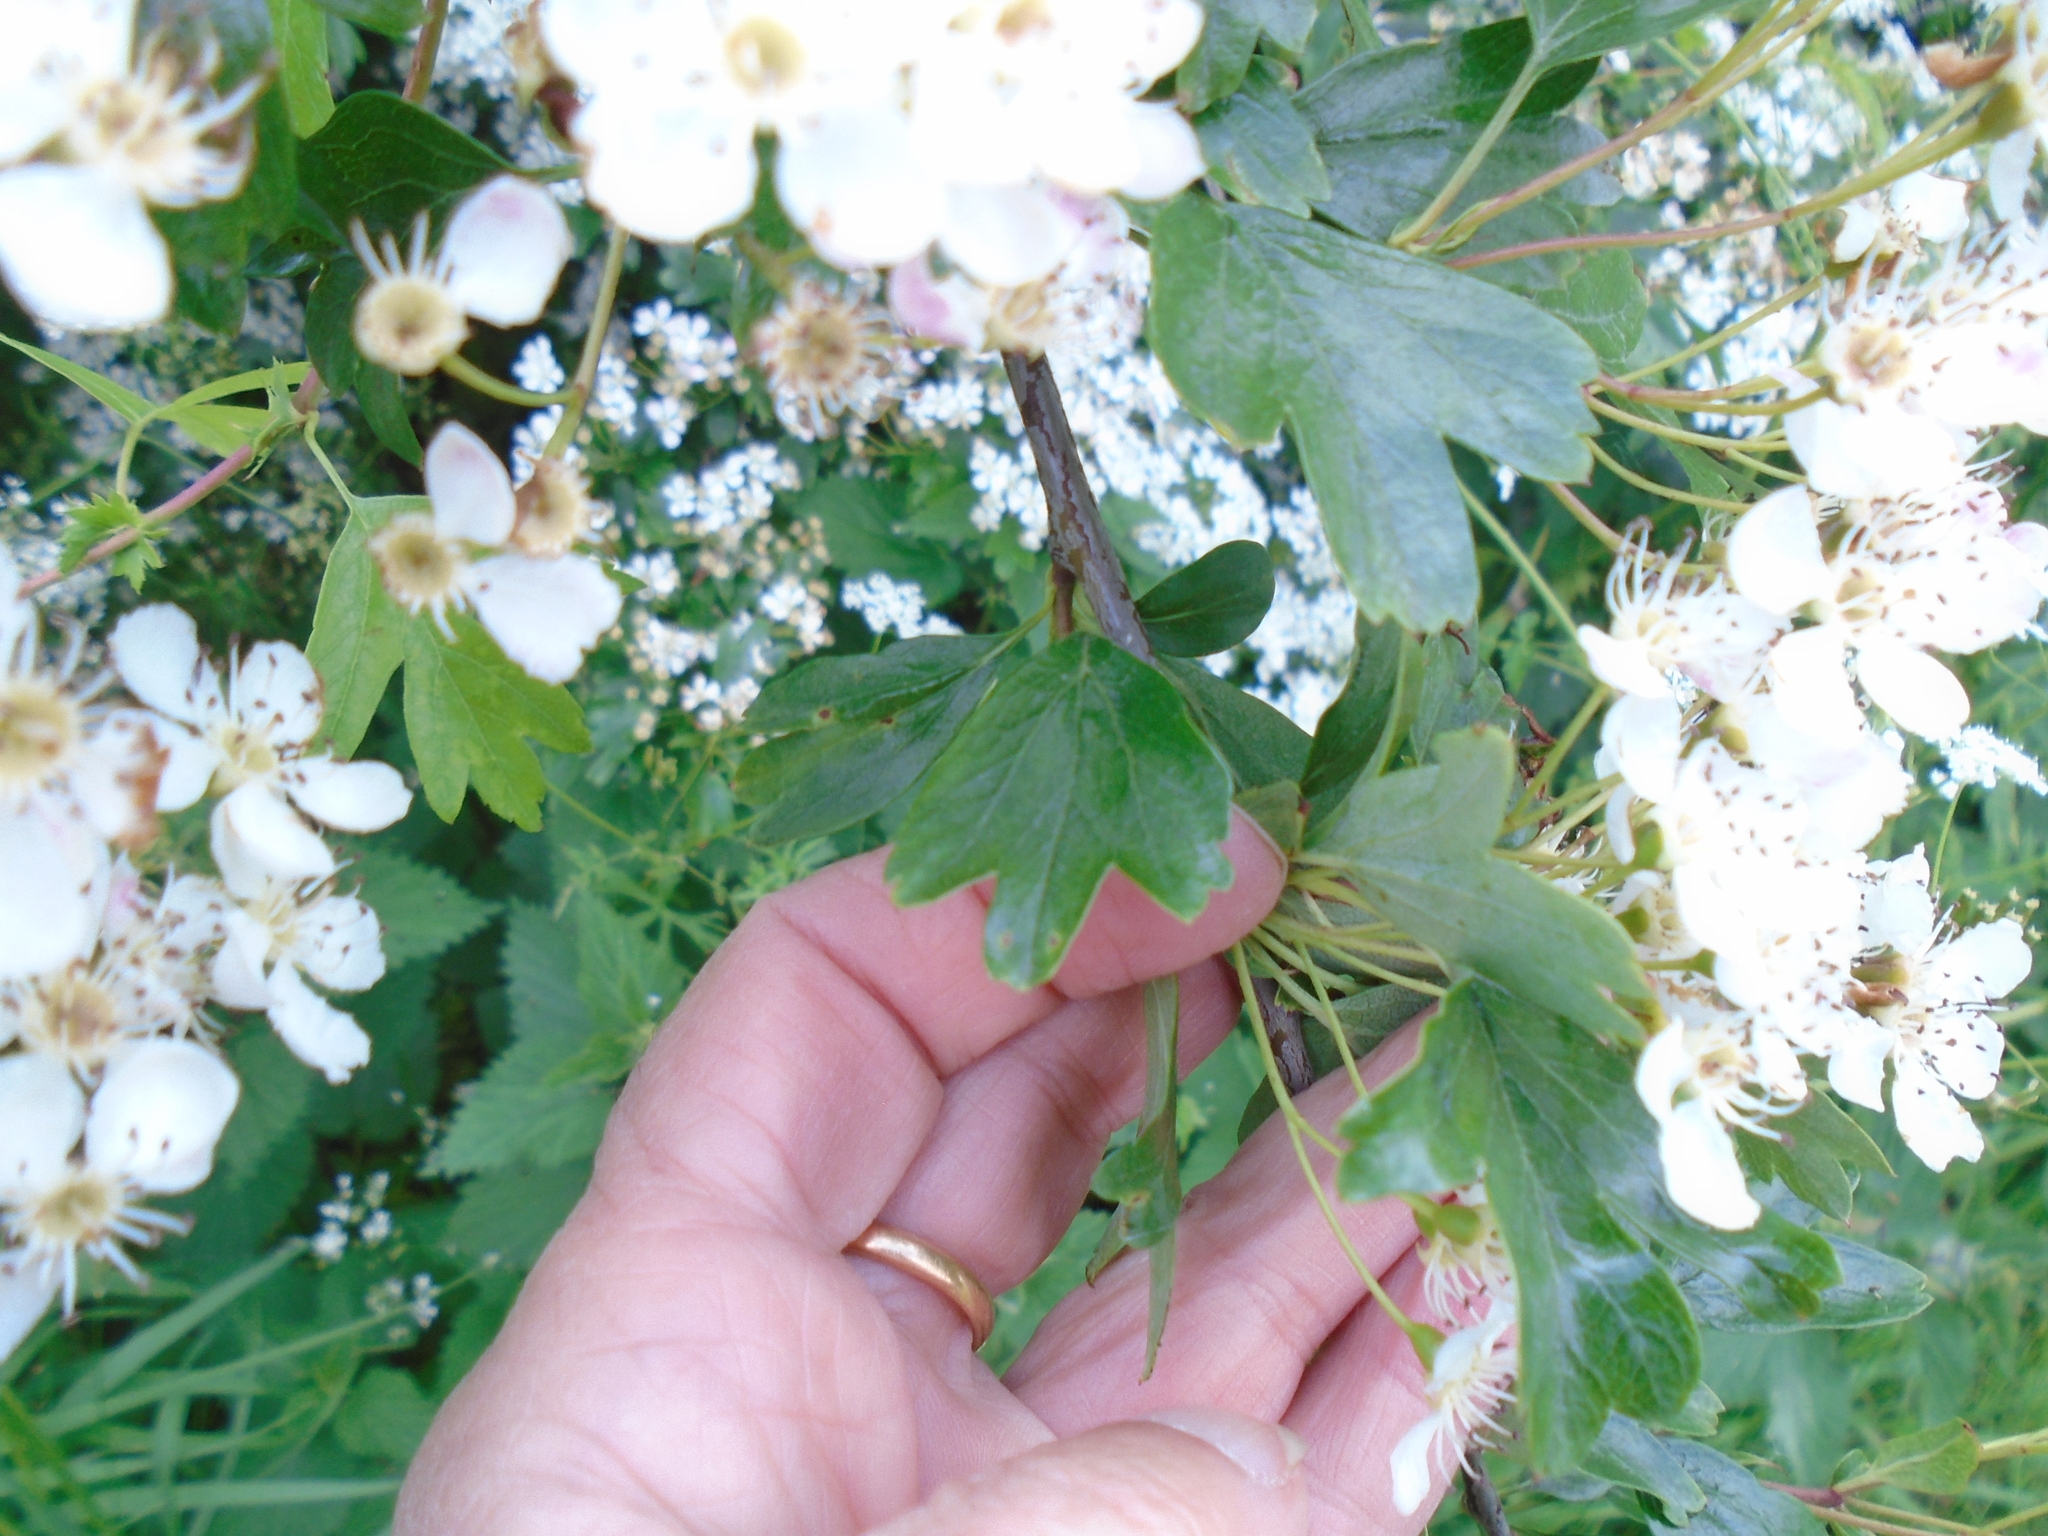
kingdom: Plantae
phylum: Tracheophyta
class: Magnoliopsida
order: Rosales
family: Rosaceae
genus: Crataegus
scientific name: Crataegus monogyna
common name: Hawthorn
